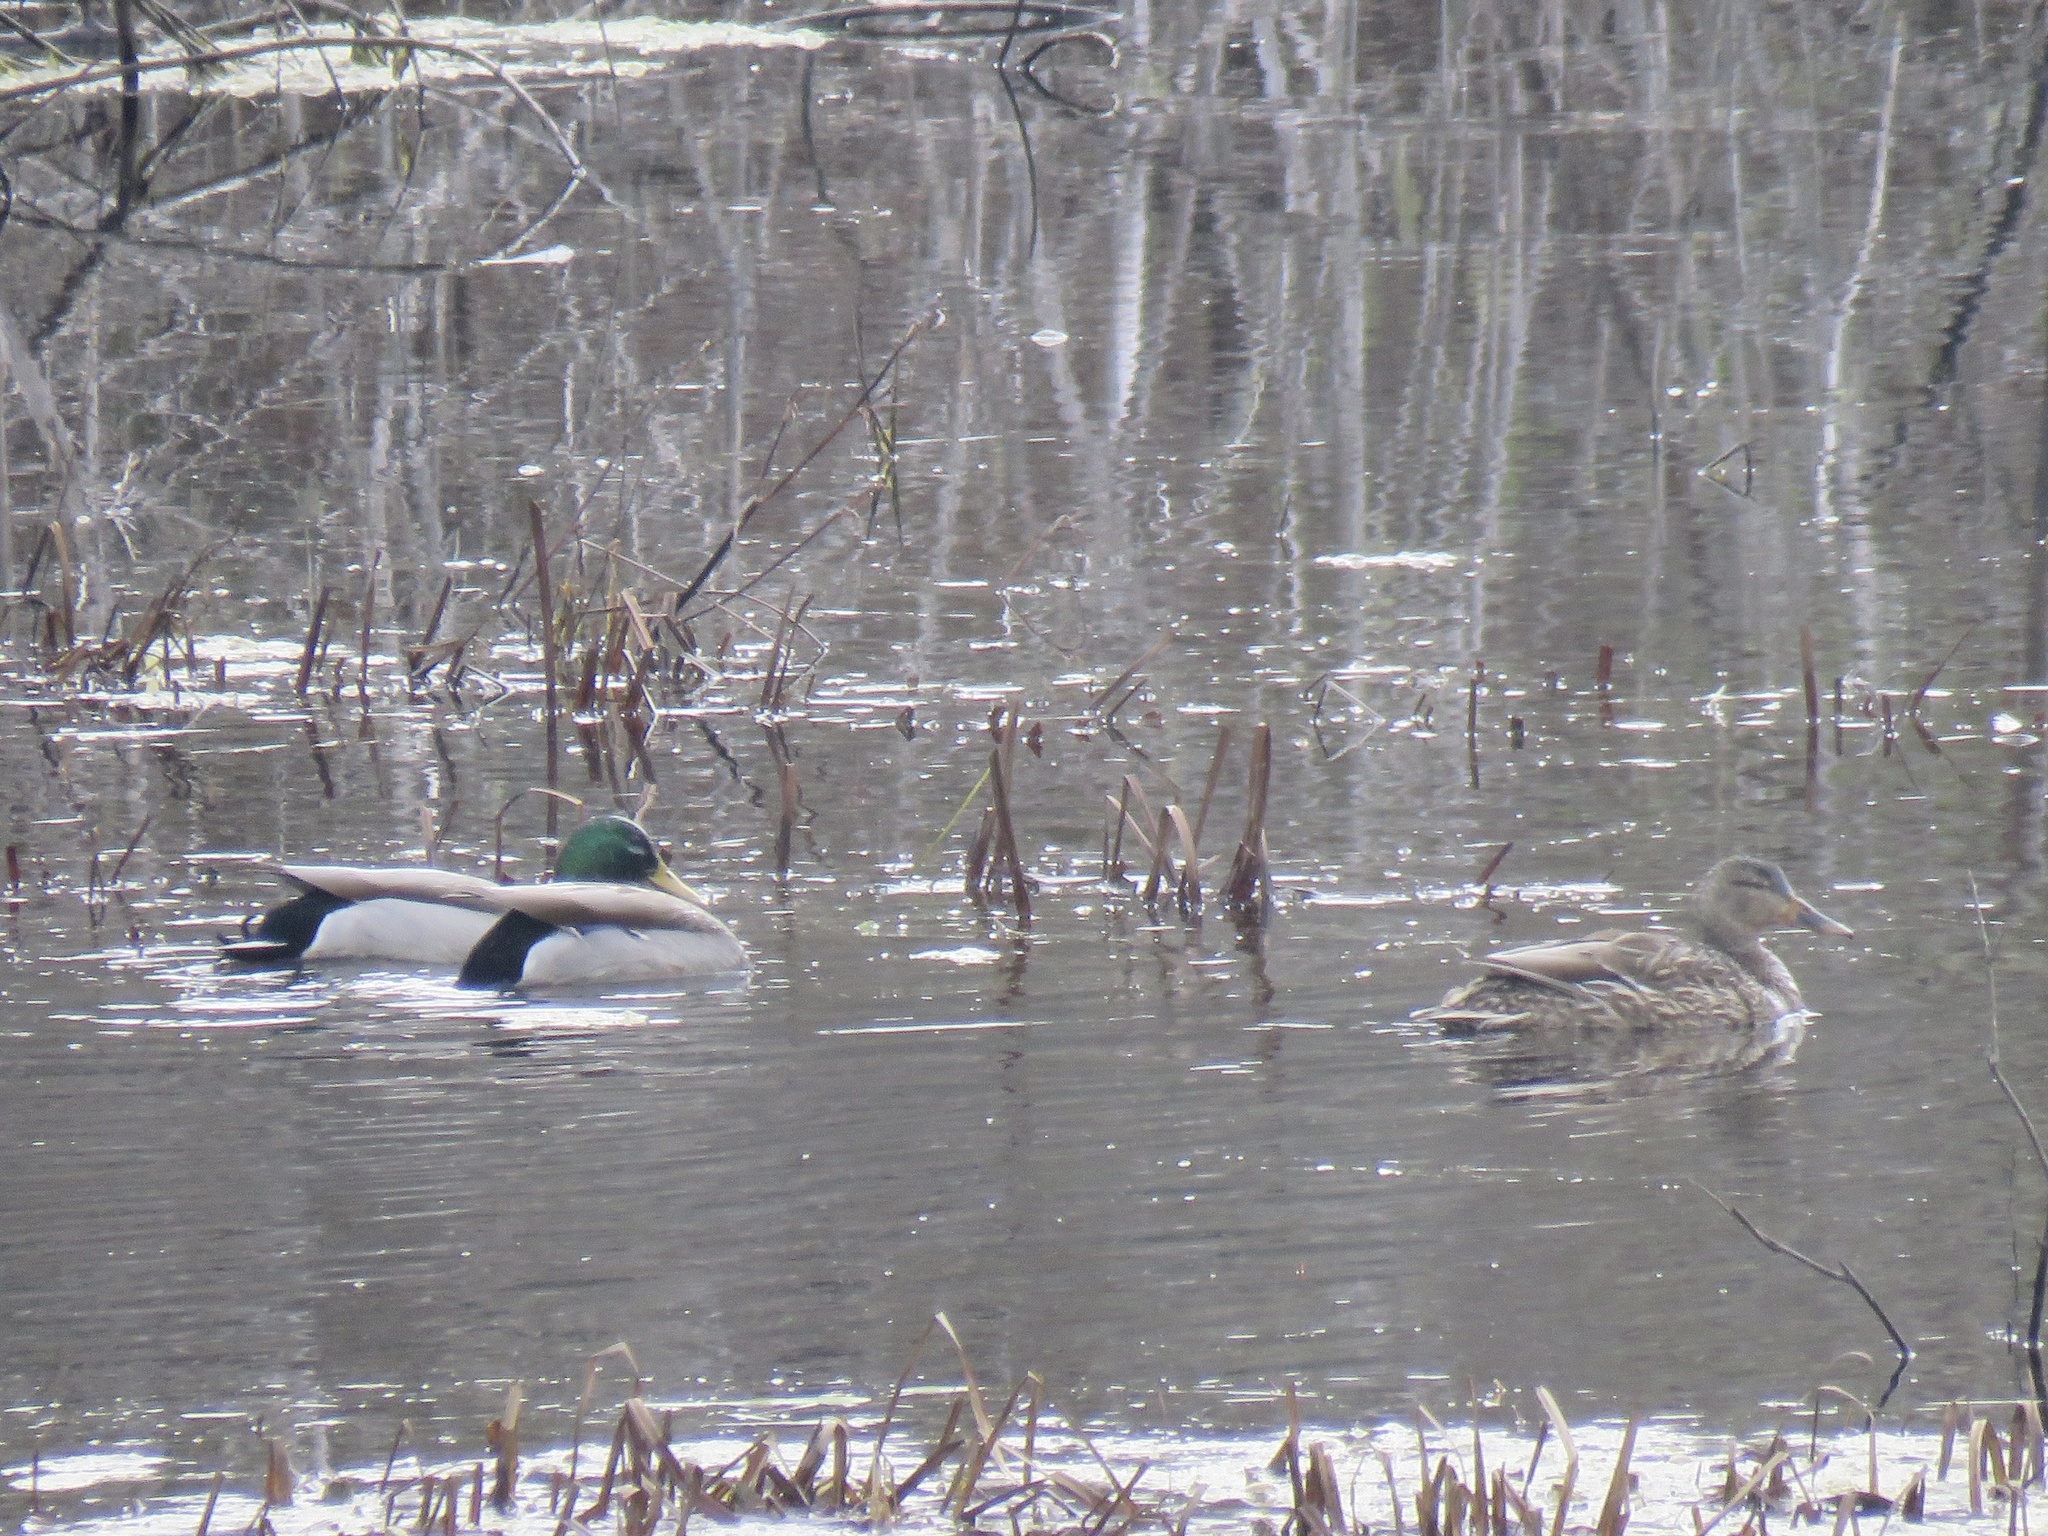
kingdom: Animalia
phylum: Chordata
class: Aves
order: Anseriformes
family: Anatidae
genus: Anas
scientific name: Anas platyrhynchos
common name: Mallard
